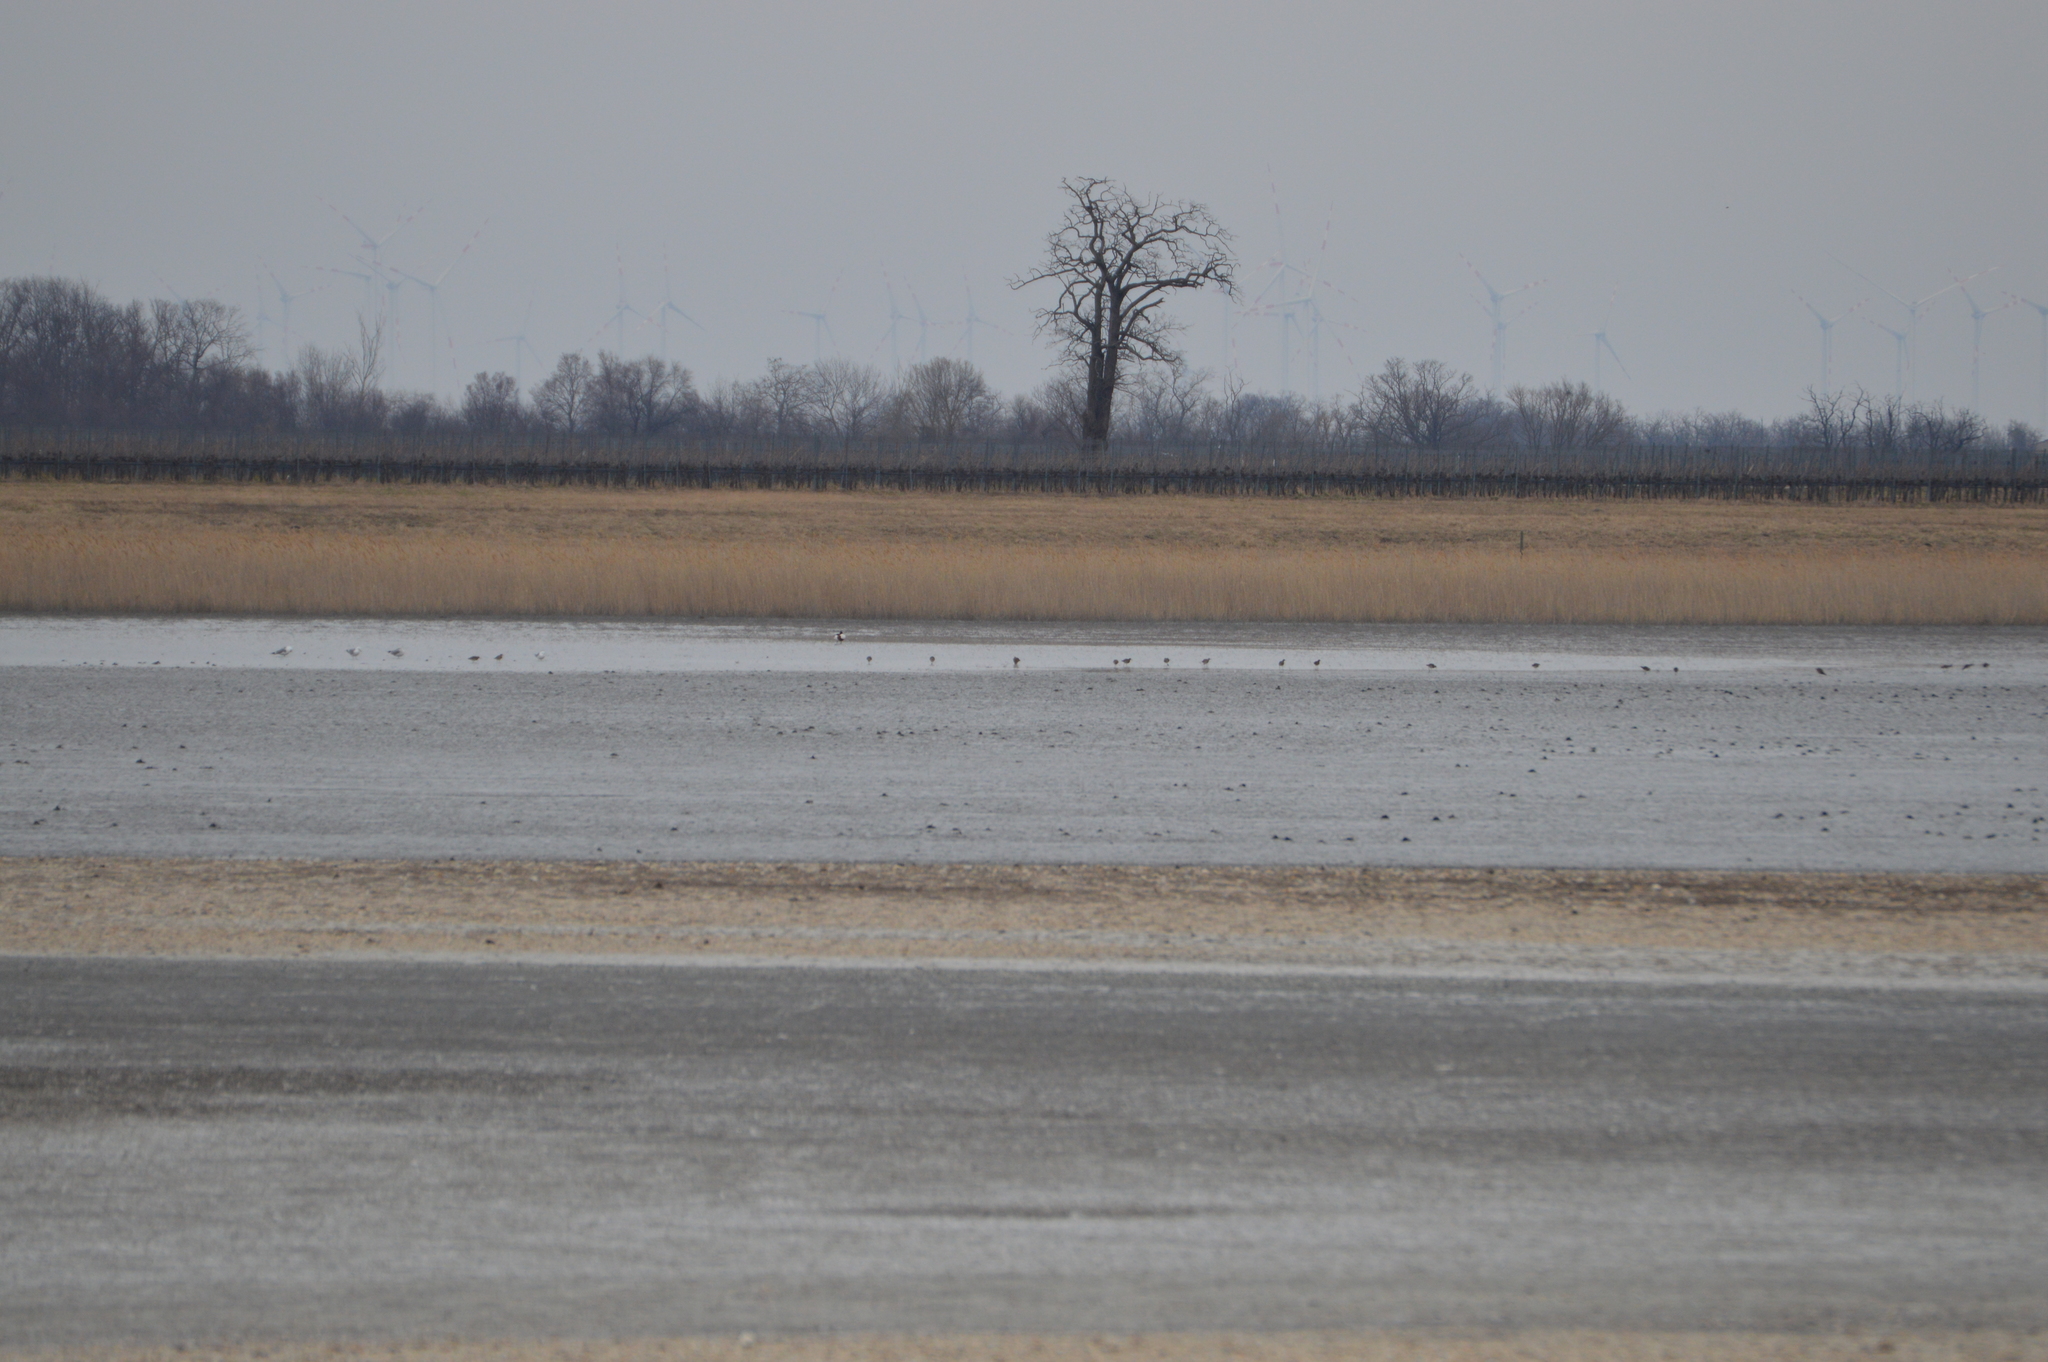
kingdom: Animalia
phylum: Chordata
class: Aves
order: Anseriformes
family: Anatidae
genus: Tadorna
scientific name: Tadorna tadorna
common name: Common shelduck
